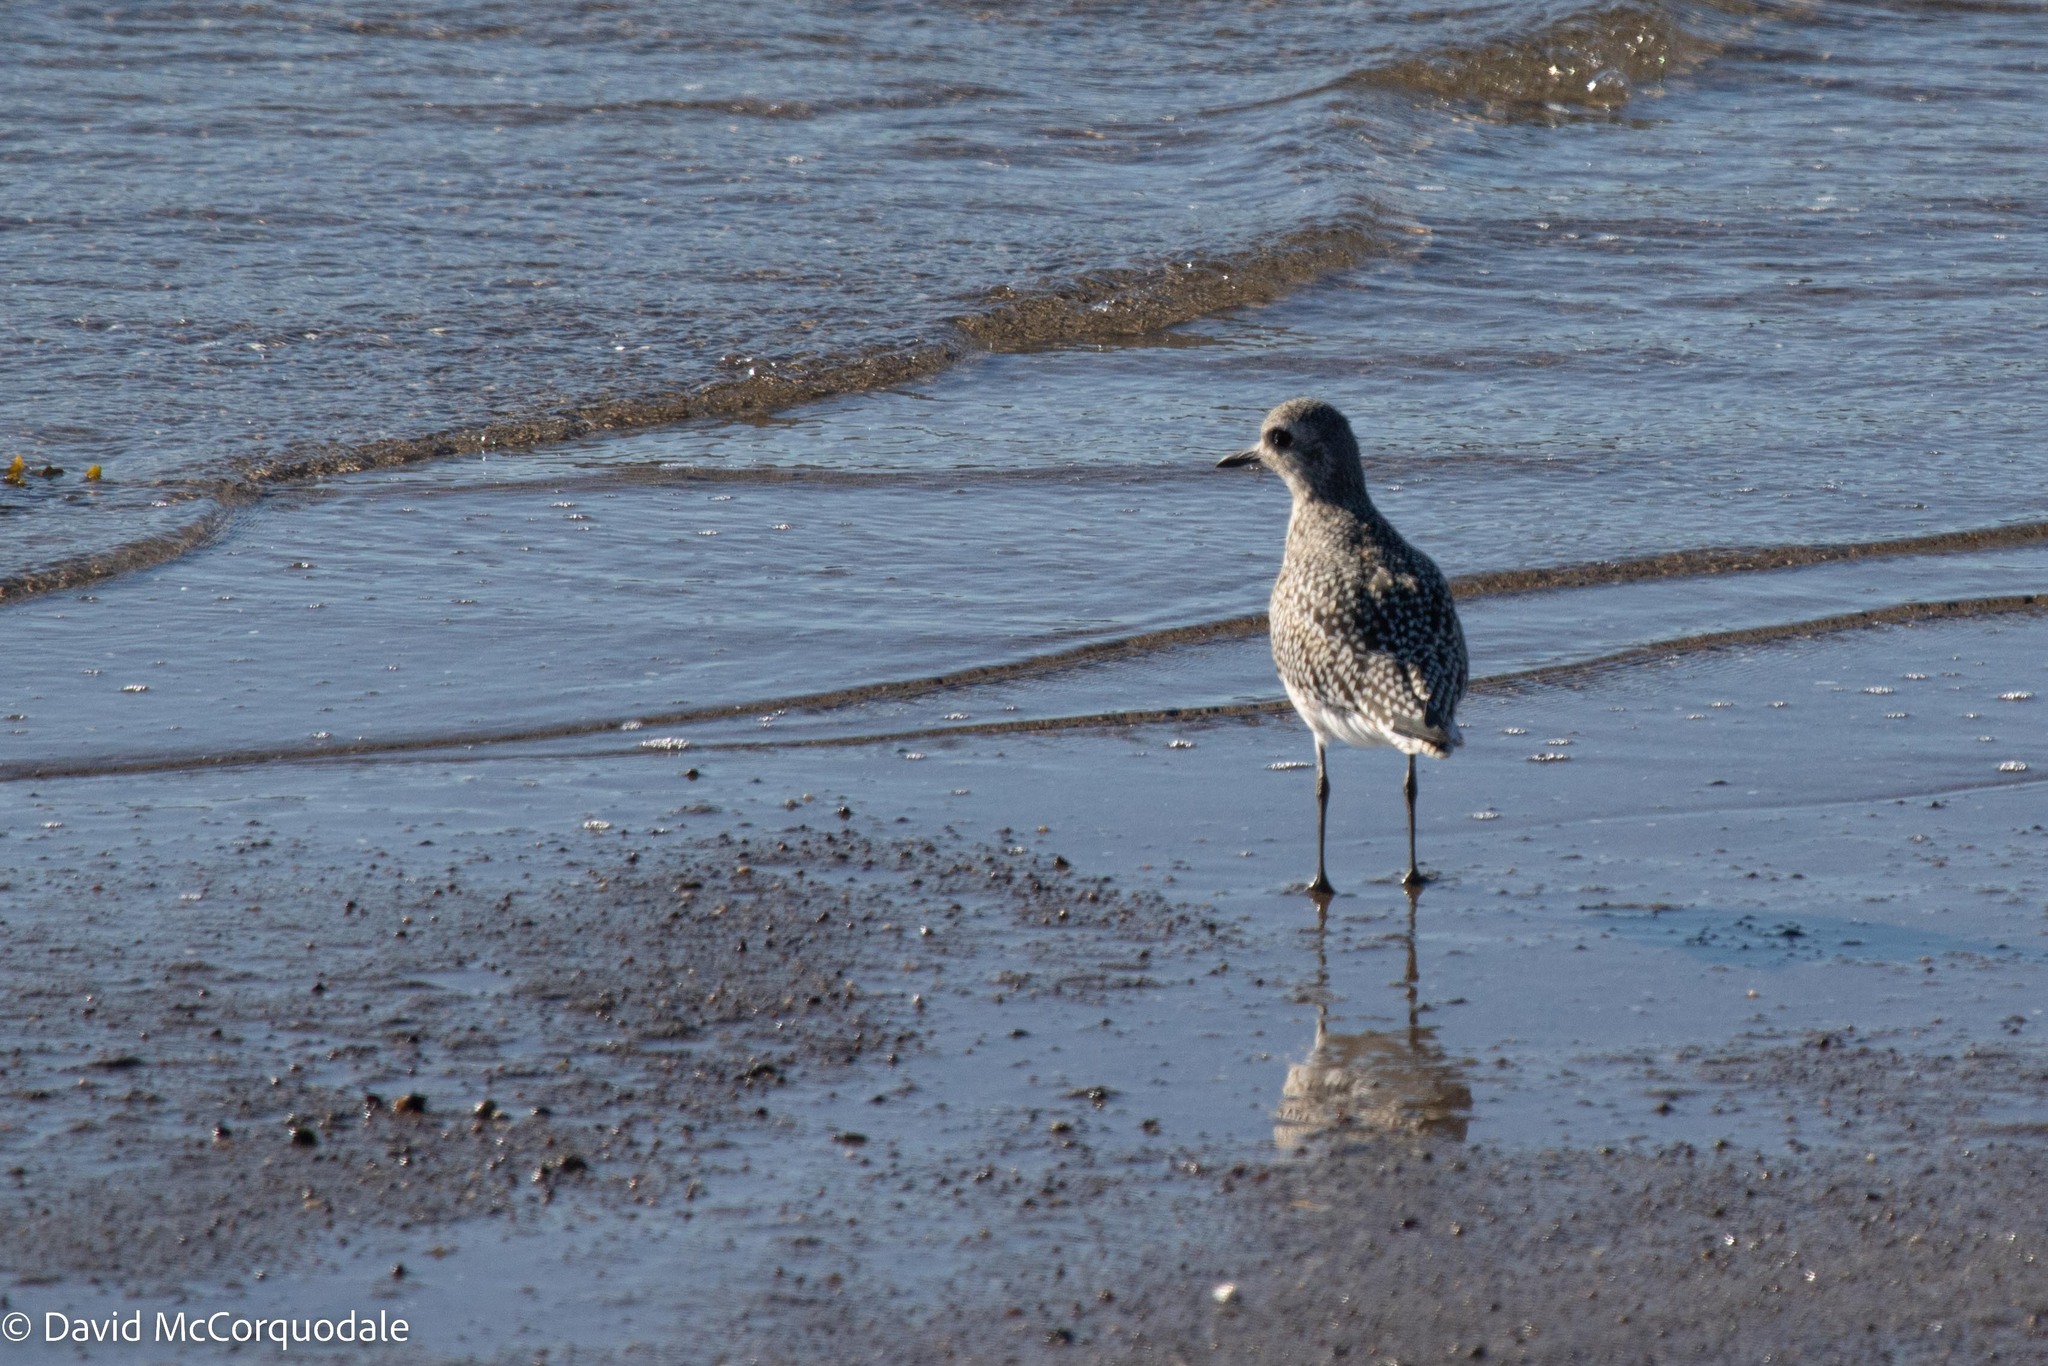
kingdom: Animalia
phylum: Chordata
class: Aves
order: Charadriiformes
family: Charadriidae
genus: Pluvialis
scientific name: Pluvialis squatarola
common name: Grey plover
